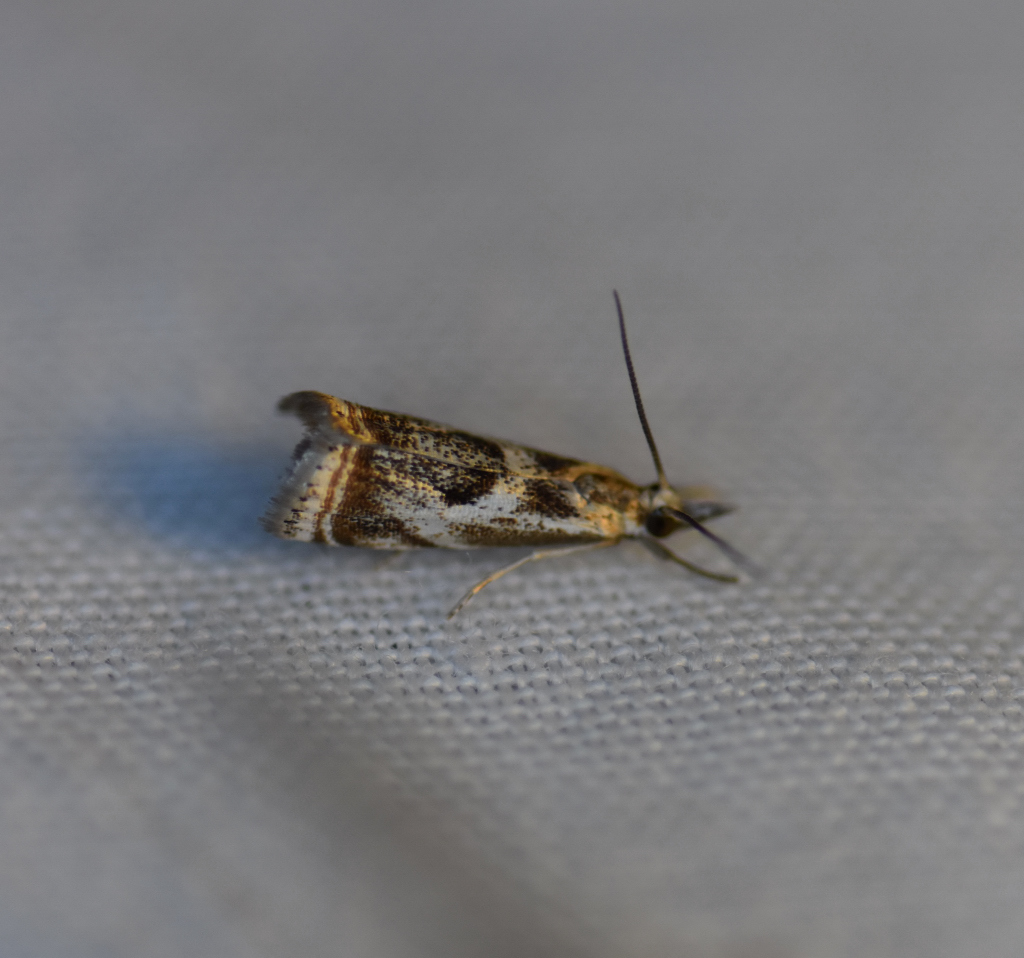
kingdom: Animalia
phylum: Arthropoda
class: Insecta
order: Lepidoptera
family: Crambidae
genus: Microcrambus
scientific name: Microcrambus elegans
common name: Elegant grass-veneer
